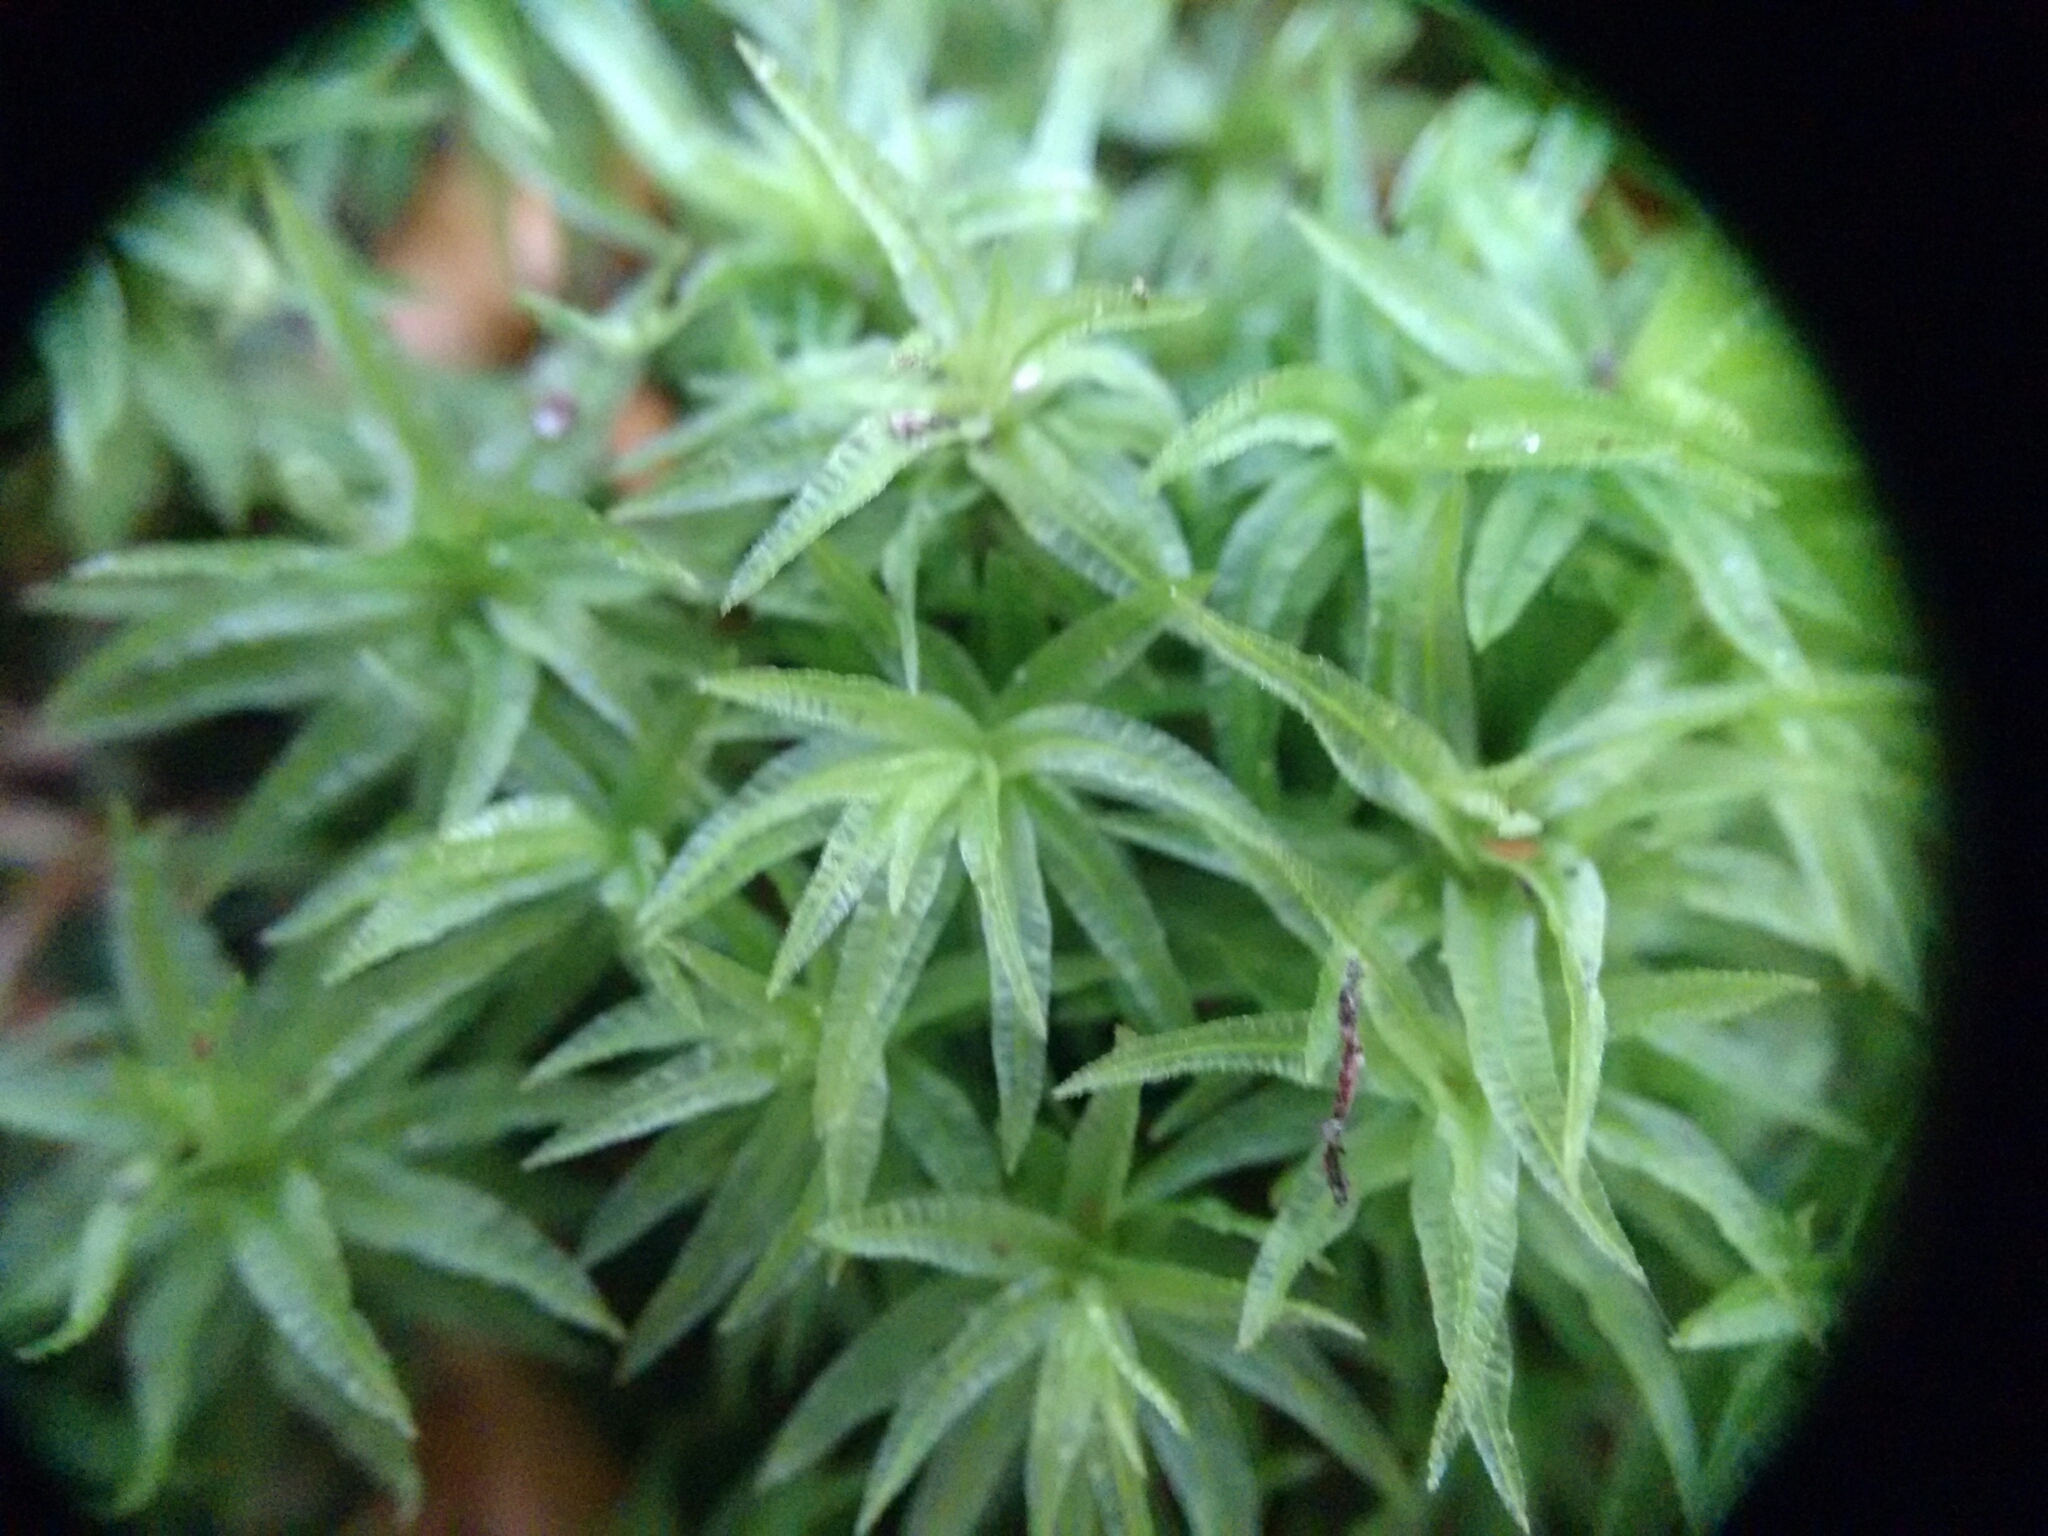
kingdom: Plantae
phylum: Bryophyta
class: Polytrichopsida
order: Polytrichales
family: Polytrichaceae
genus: Atrichum
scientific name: Atrichum undulatum
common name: Common smoothcap
